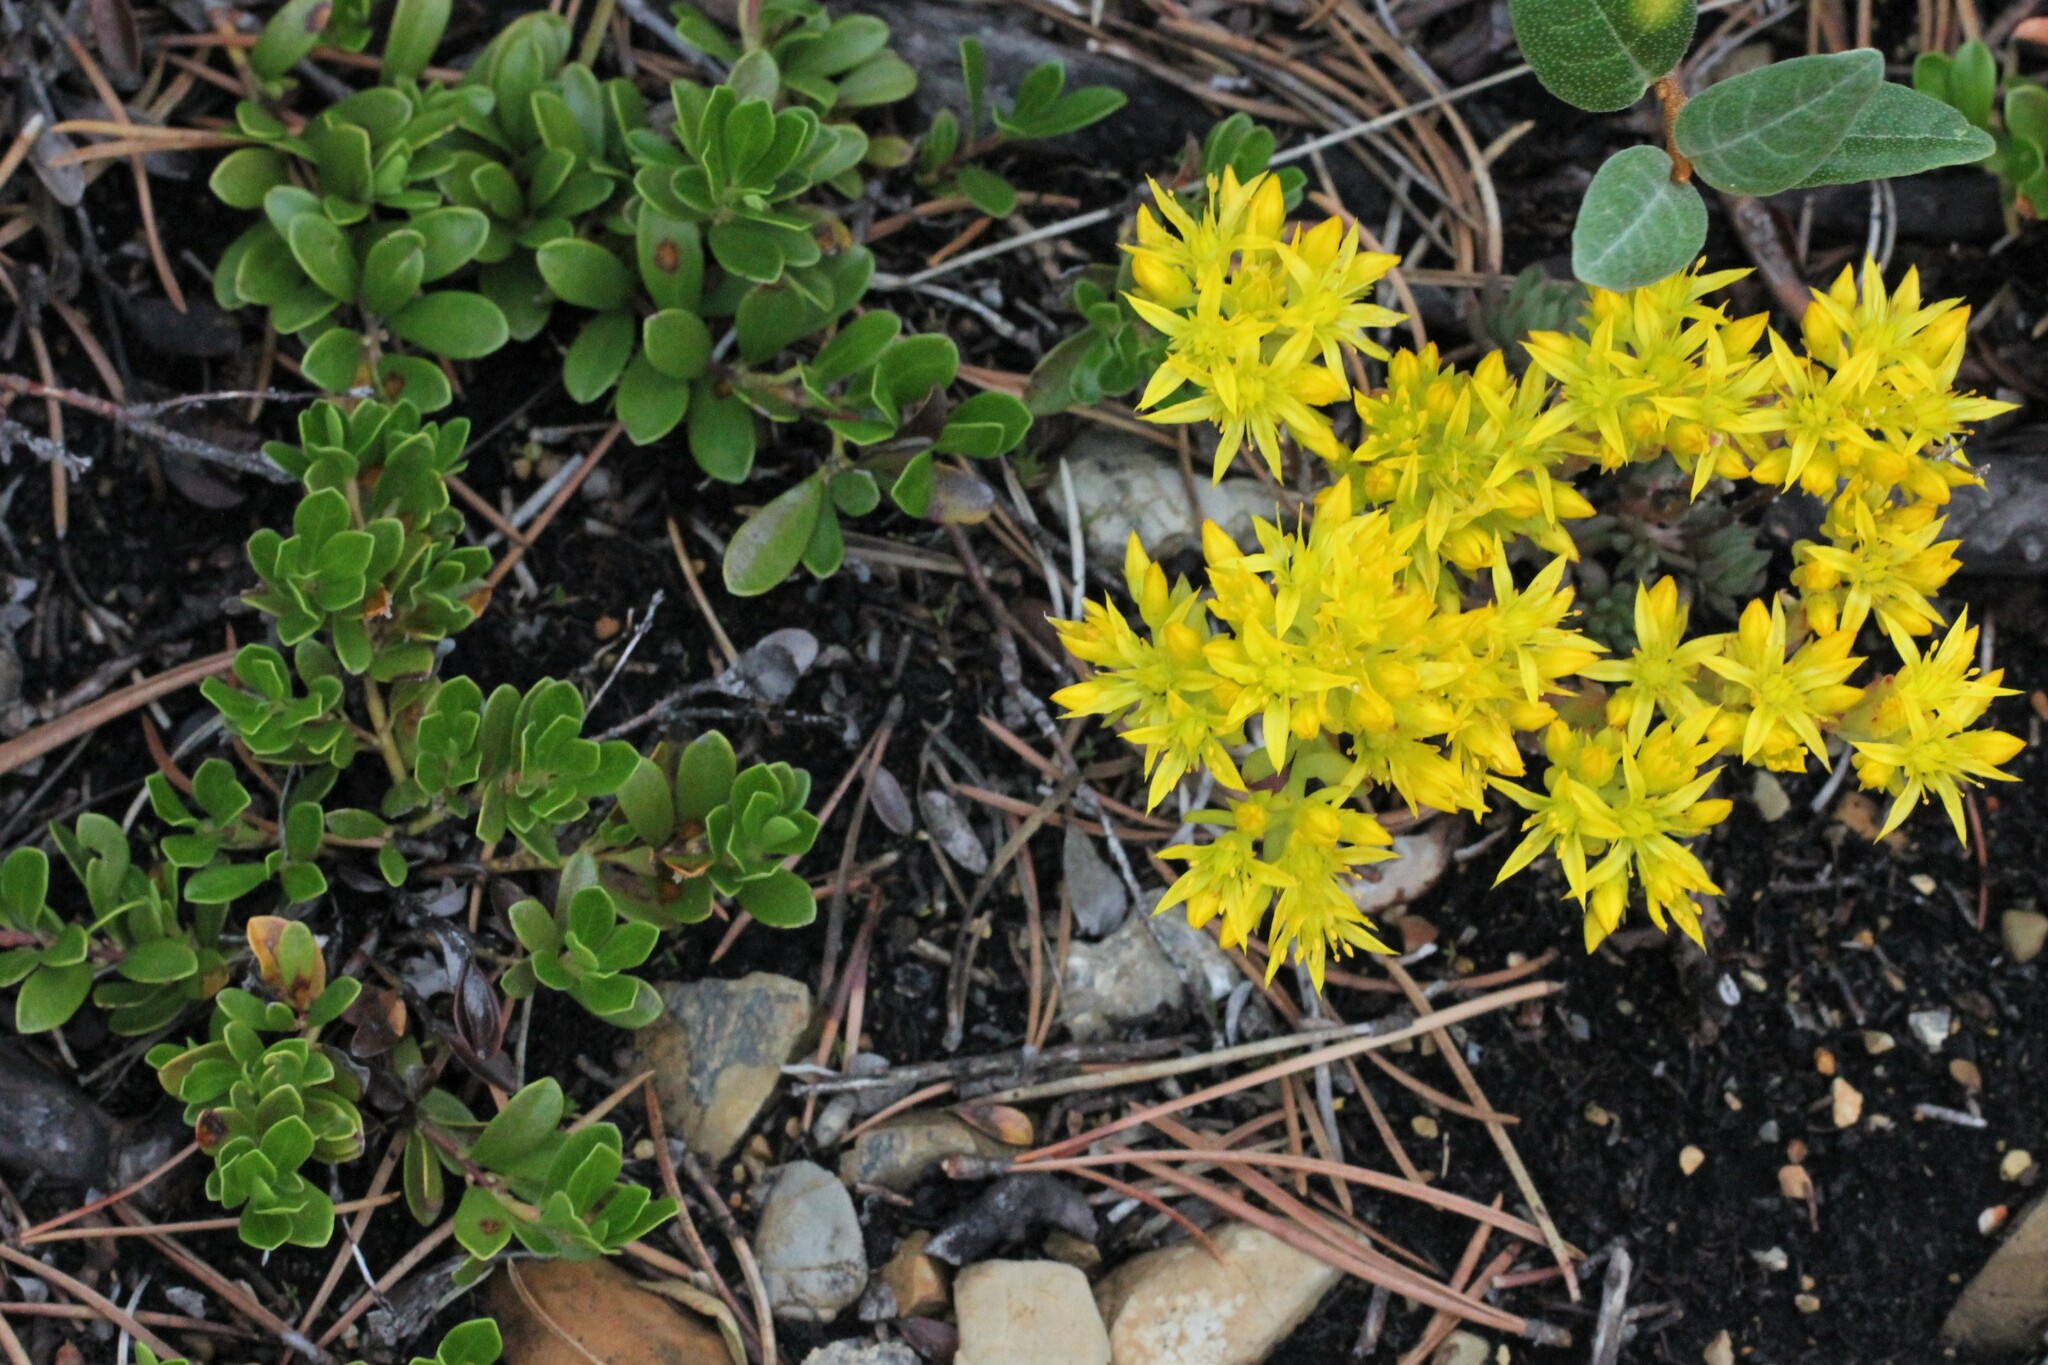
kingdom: Plantae
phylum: Tracheophyta
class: Magnoliopsida
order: Saxifragales
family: Crassulaceae
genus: Sedum
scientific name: Sedum lanceolatum
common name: Common stonecrop
